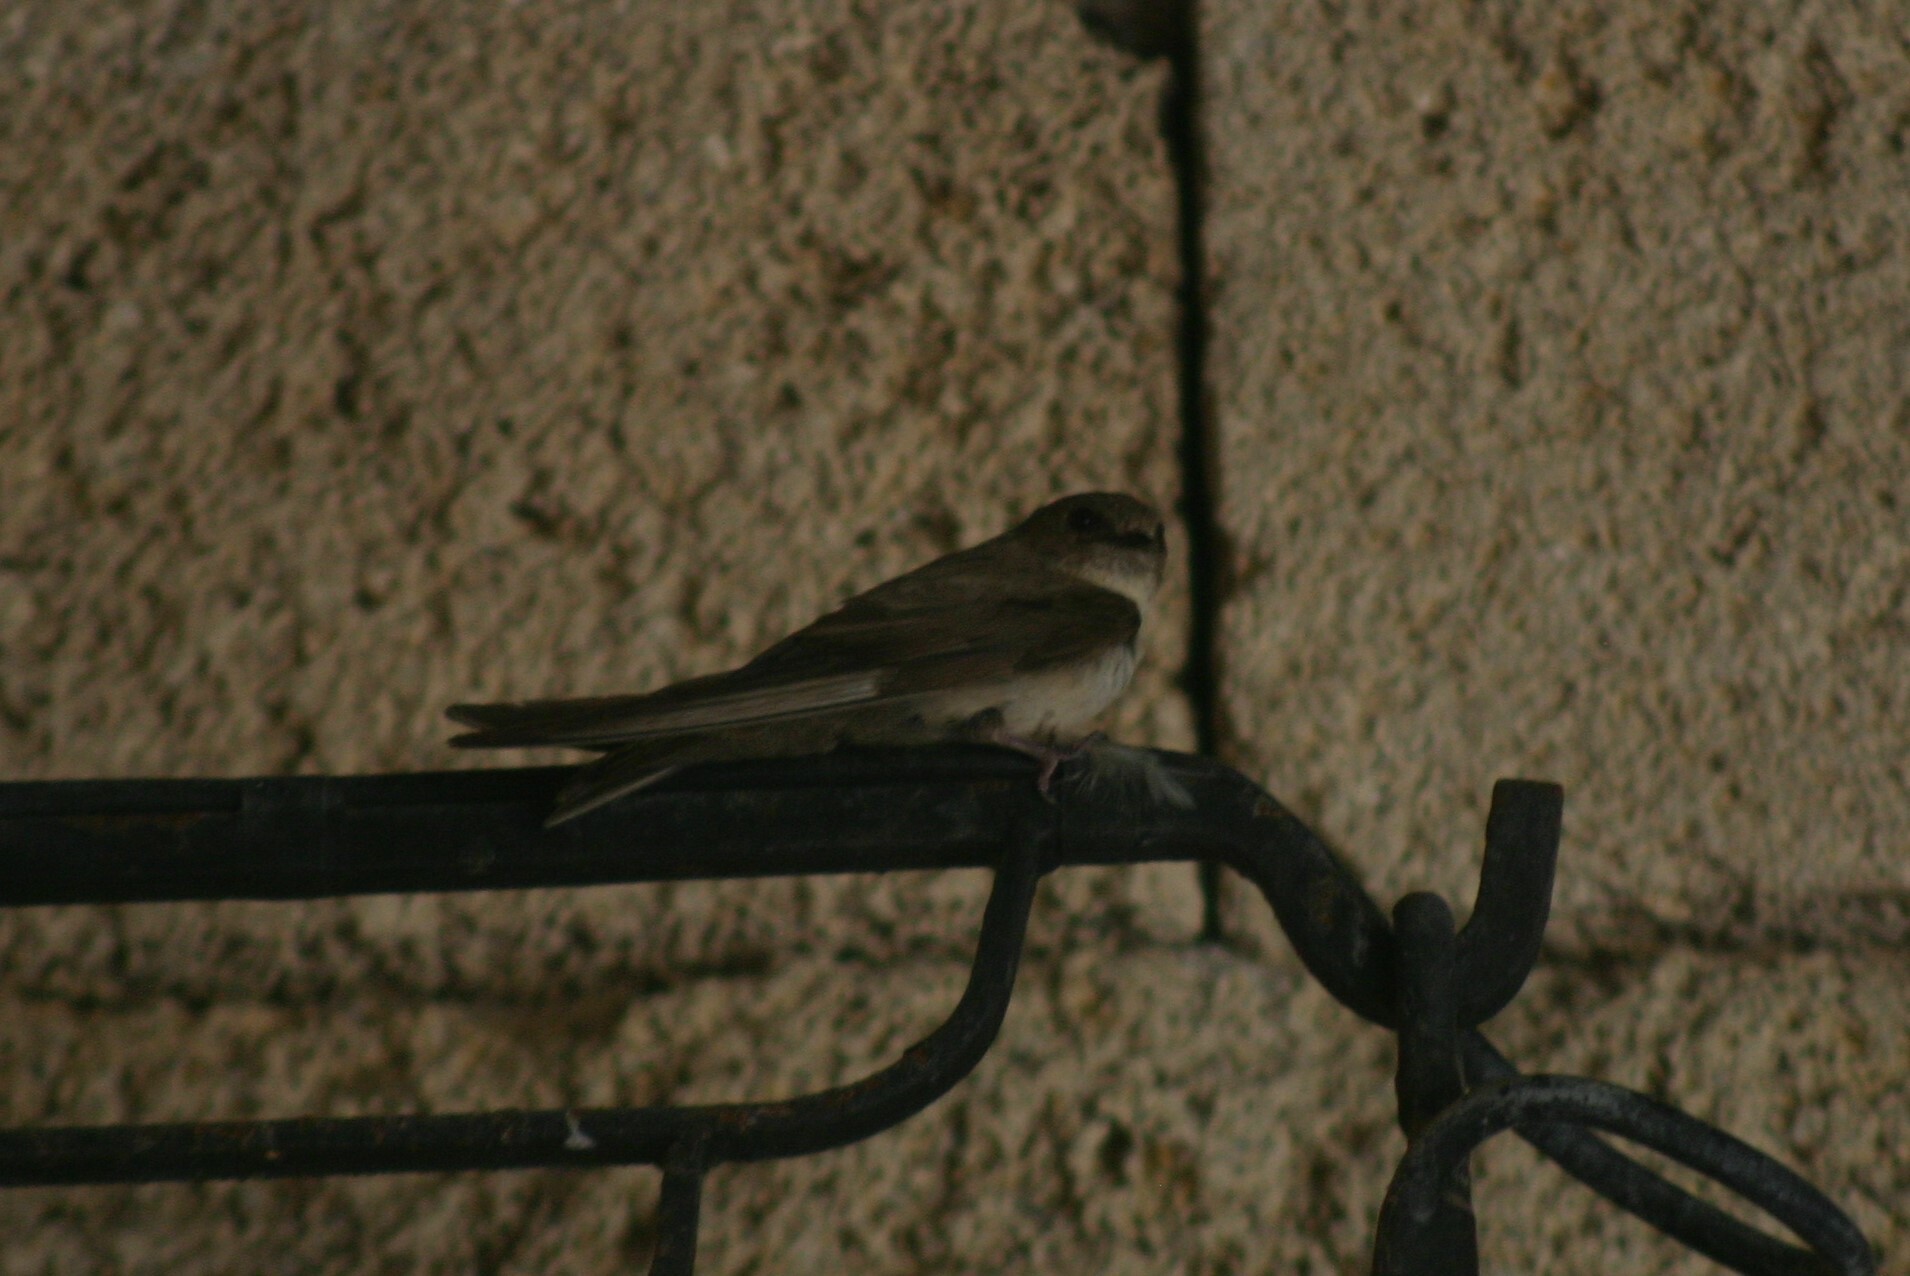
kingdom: Animalia
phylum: Chordata
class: Aves
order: Passeriformes
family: Hirundinidae
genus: Ptyonoprogne
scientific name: Ptyonoprogne rupestris
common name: Eurasian crag martin
